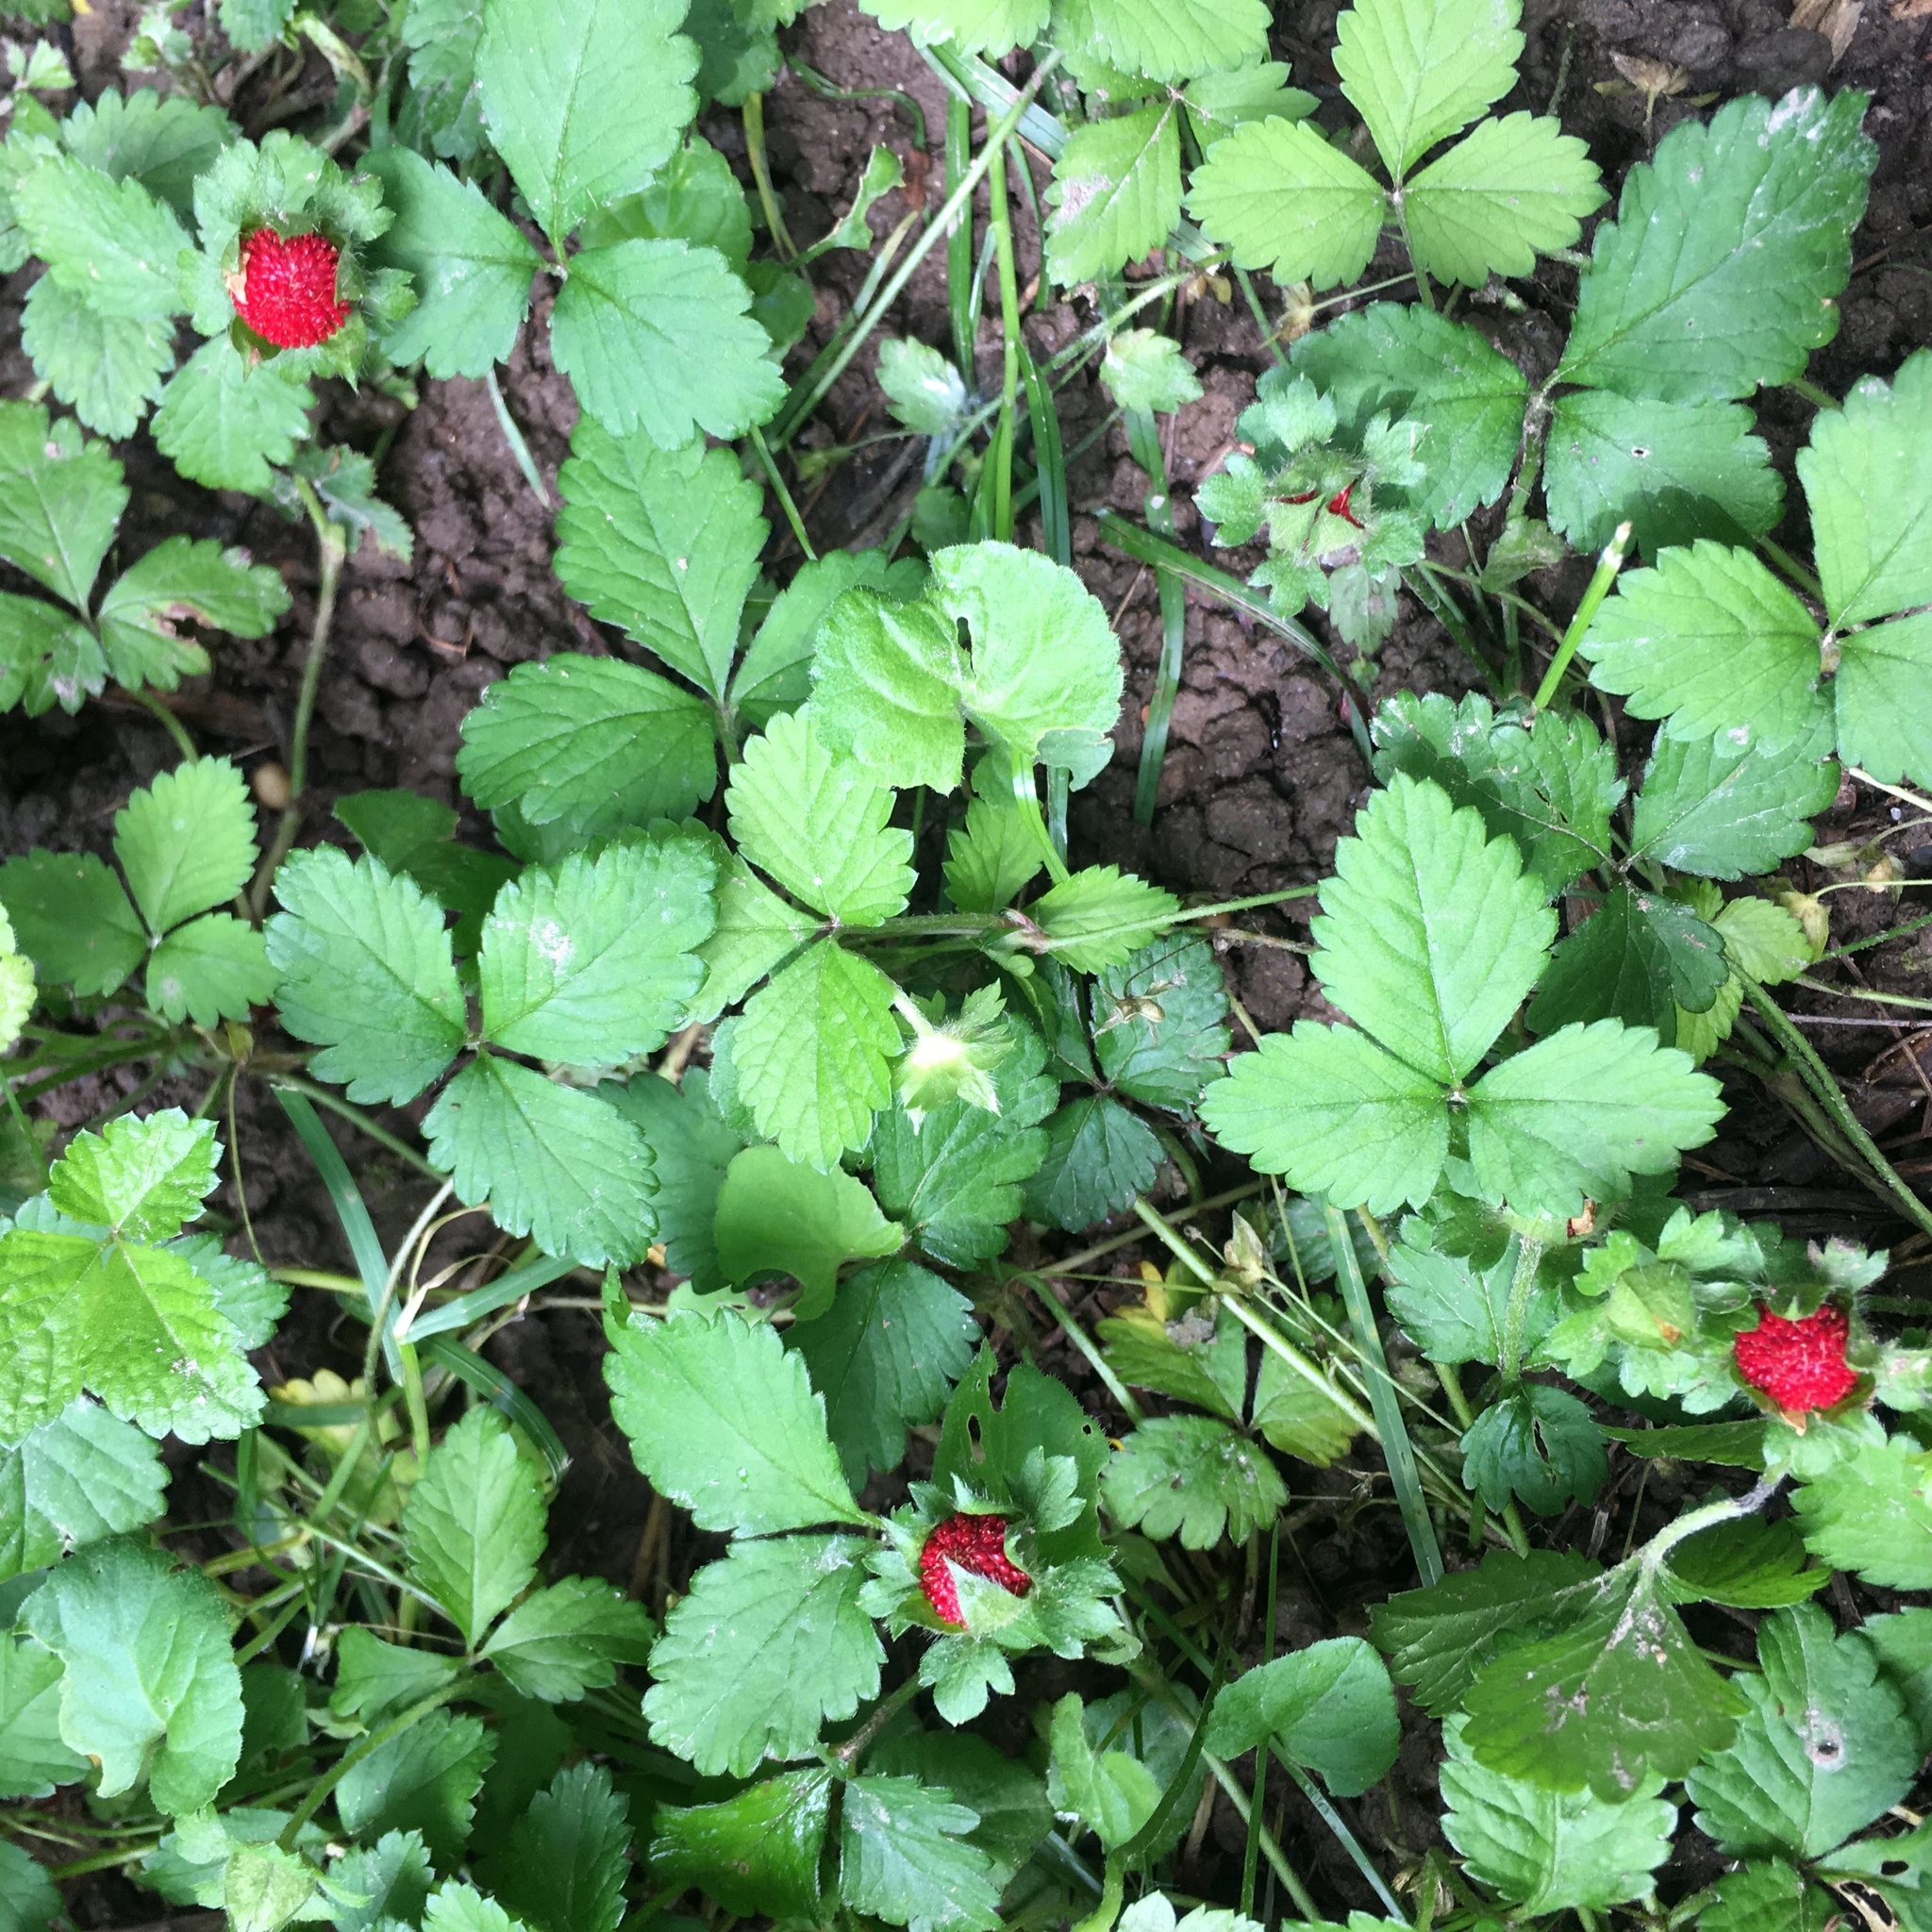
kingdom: Plantae
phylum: Tracheophyta
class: Magnoliopsida
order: Rosales
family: Rosaceae
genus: Potentilla
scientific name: Potentilla indica
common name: Yellow-flowered strawberry
